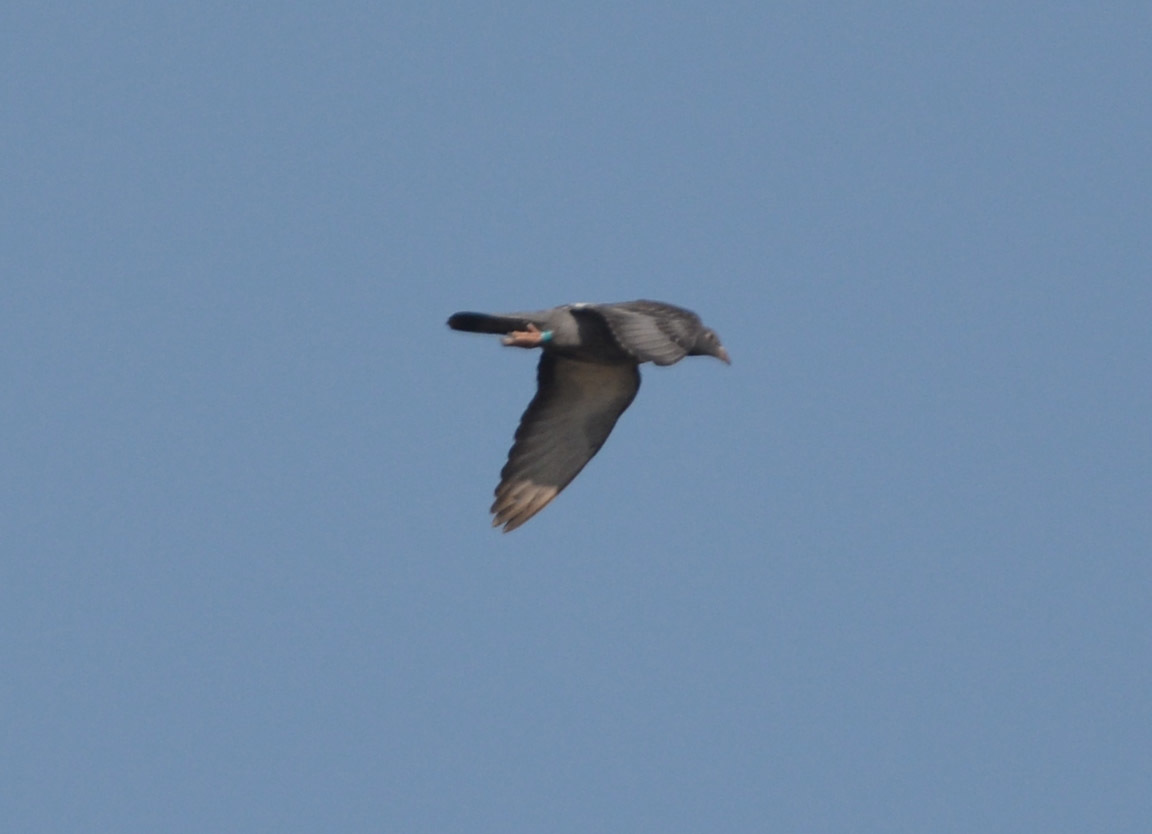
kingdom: Animalia
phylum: Chordata
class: Aves
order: Columbiformes
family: Columbidae
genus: Columba
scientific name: Columba livia
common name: Rock pigeon
